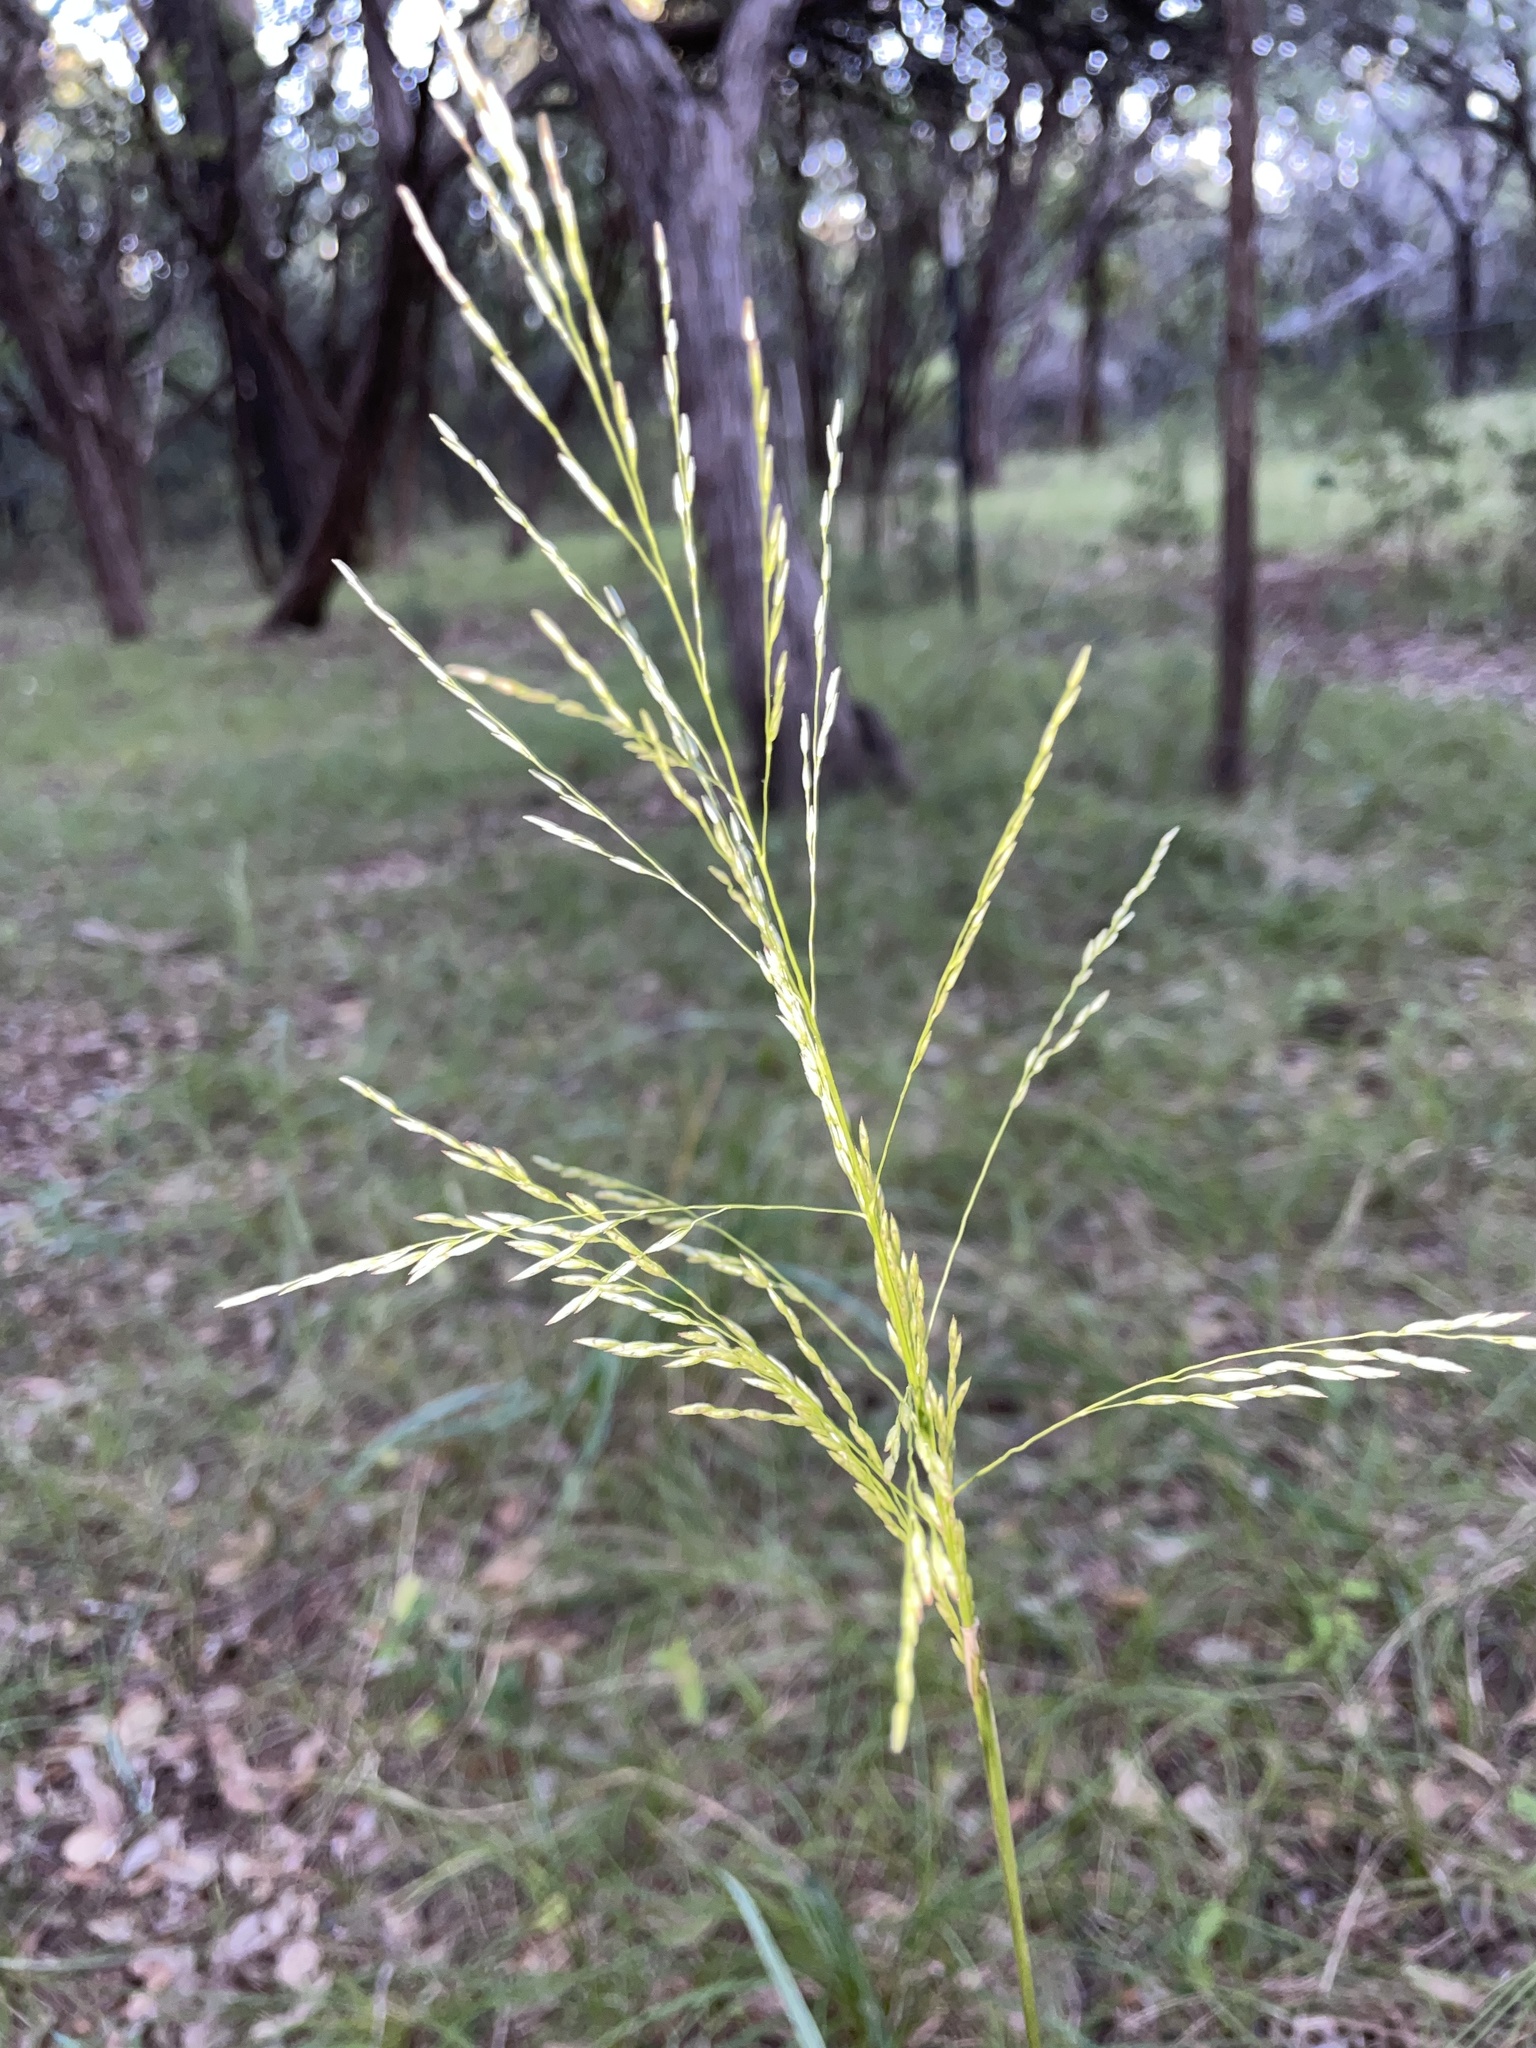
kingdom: Plantae
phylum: Tracheophyta
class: Liliopsida
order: Poales
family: Poaceae
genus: Tridens
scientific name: Tridens flavus
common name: Purpletop
